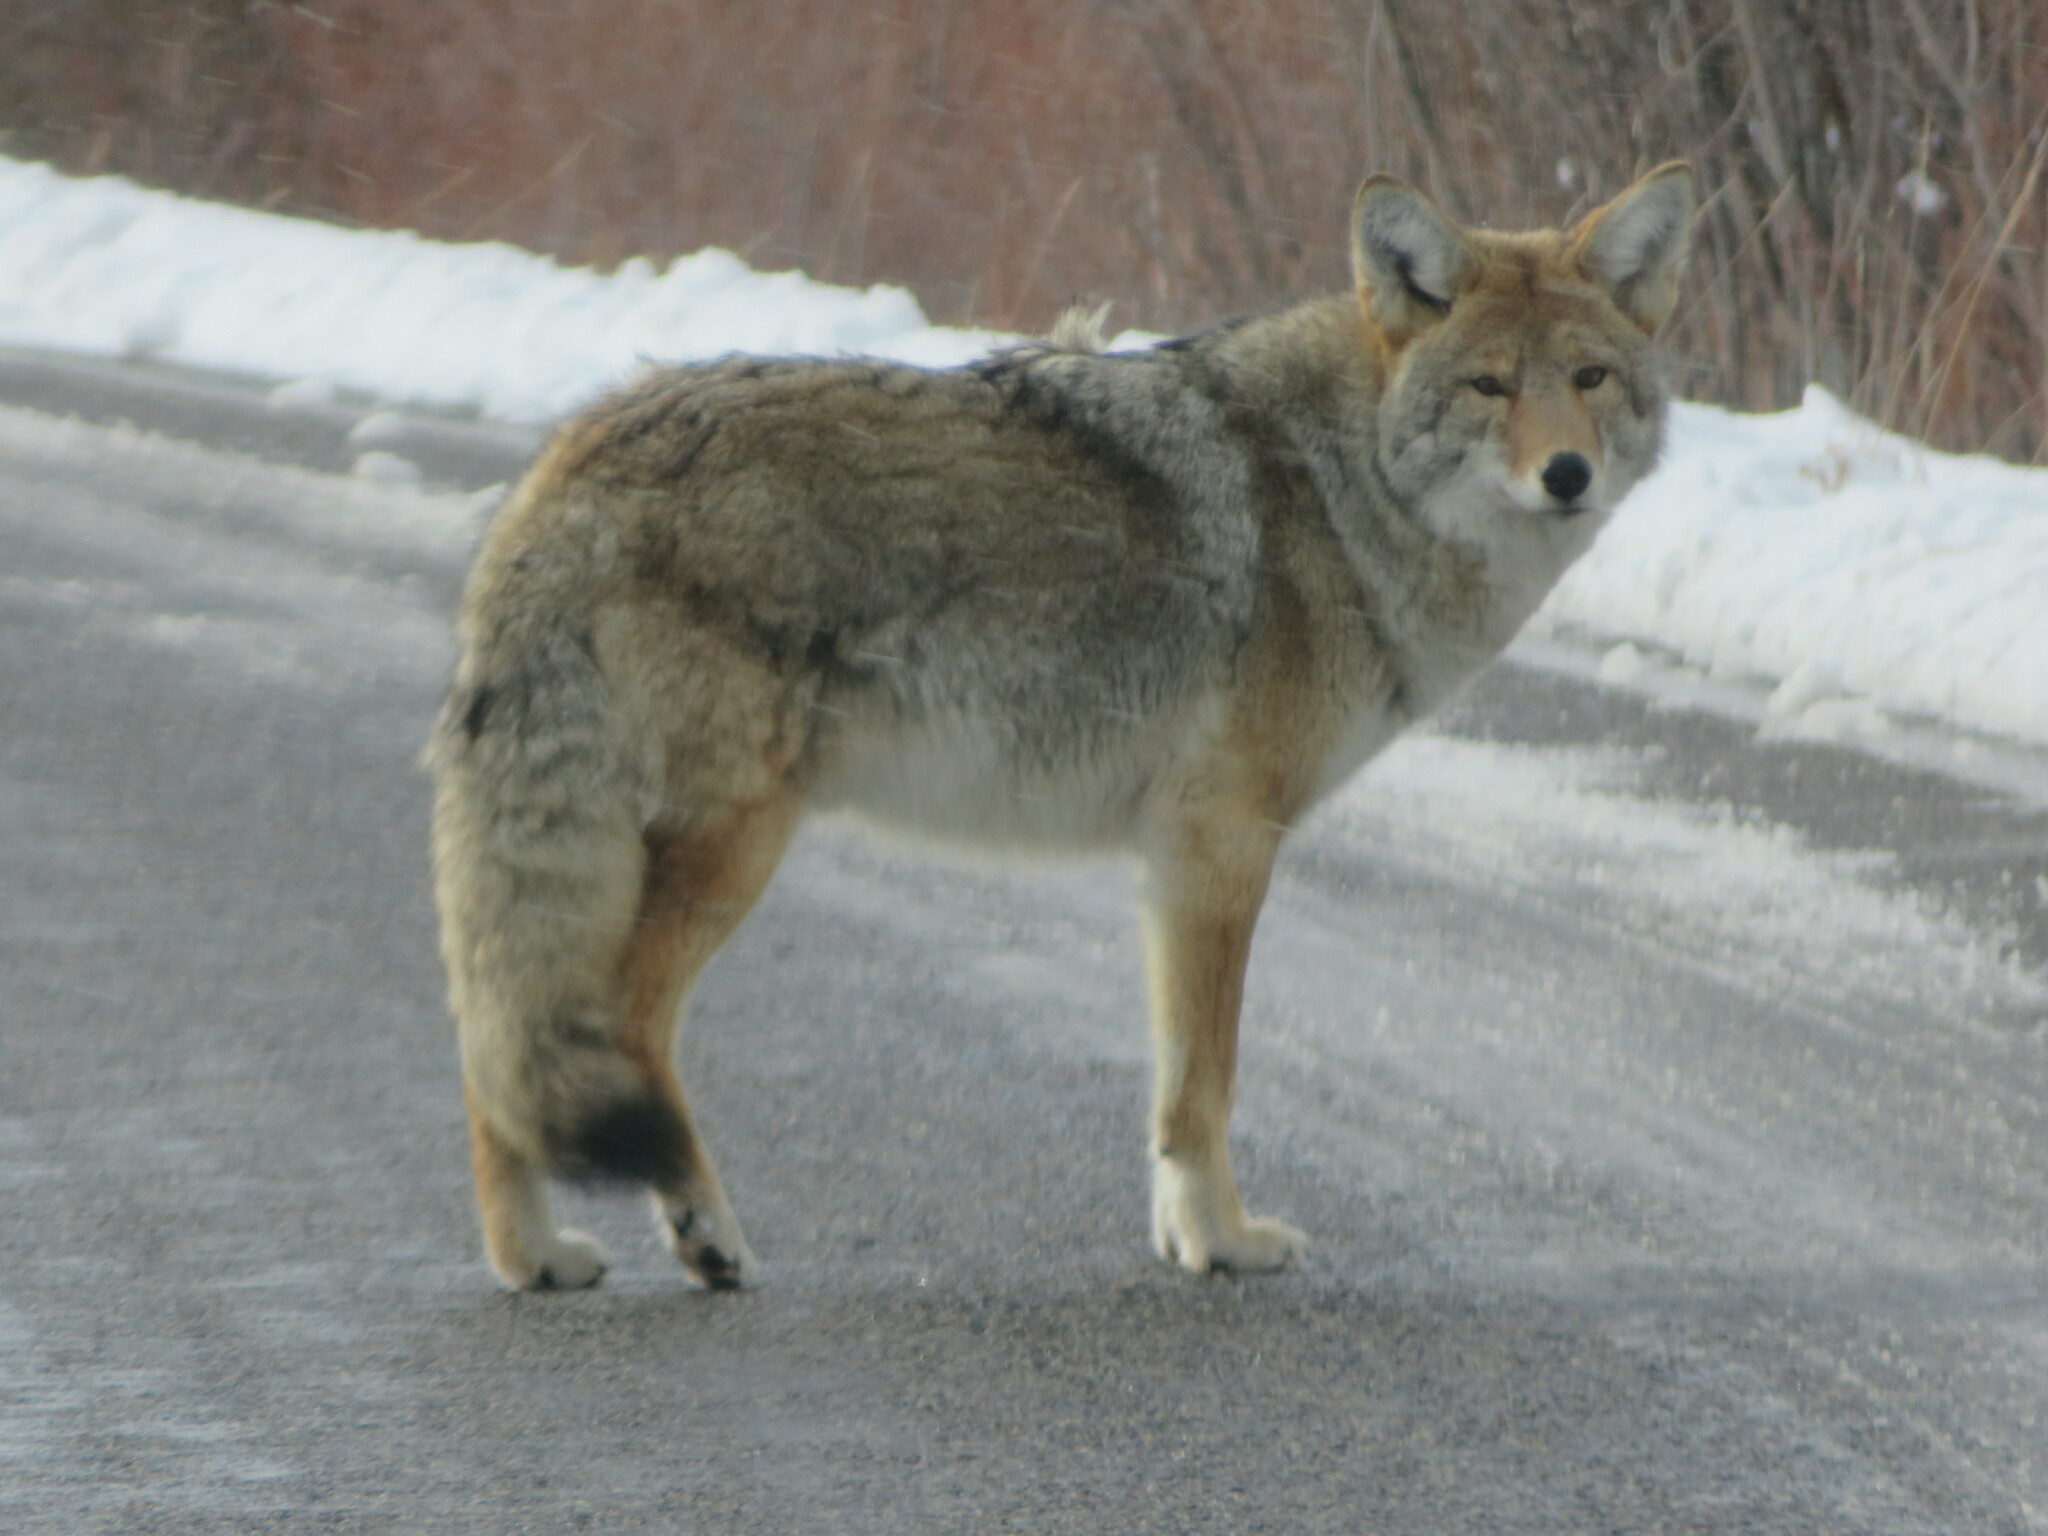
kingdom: Animalia
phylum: Chordata
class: Mammalia
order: Carnivora
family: Canidae
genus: Canis
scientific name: Canis latrans
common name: Coyote
